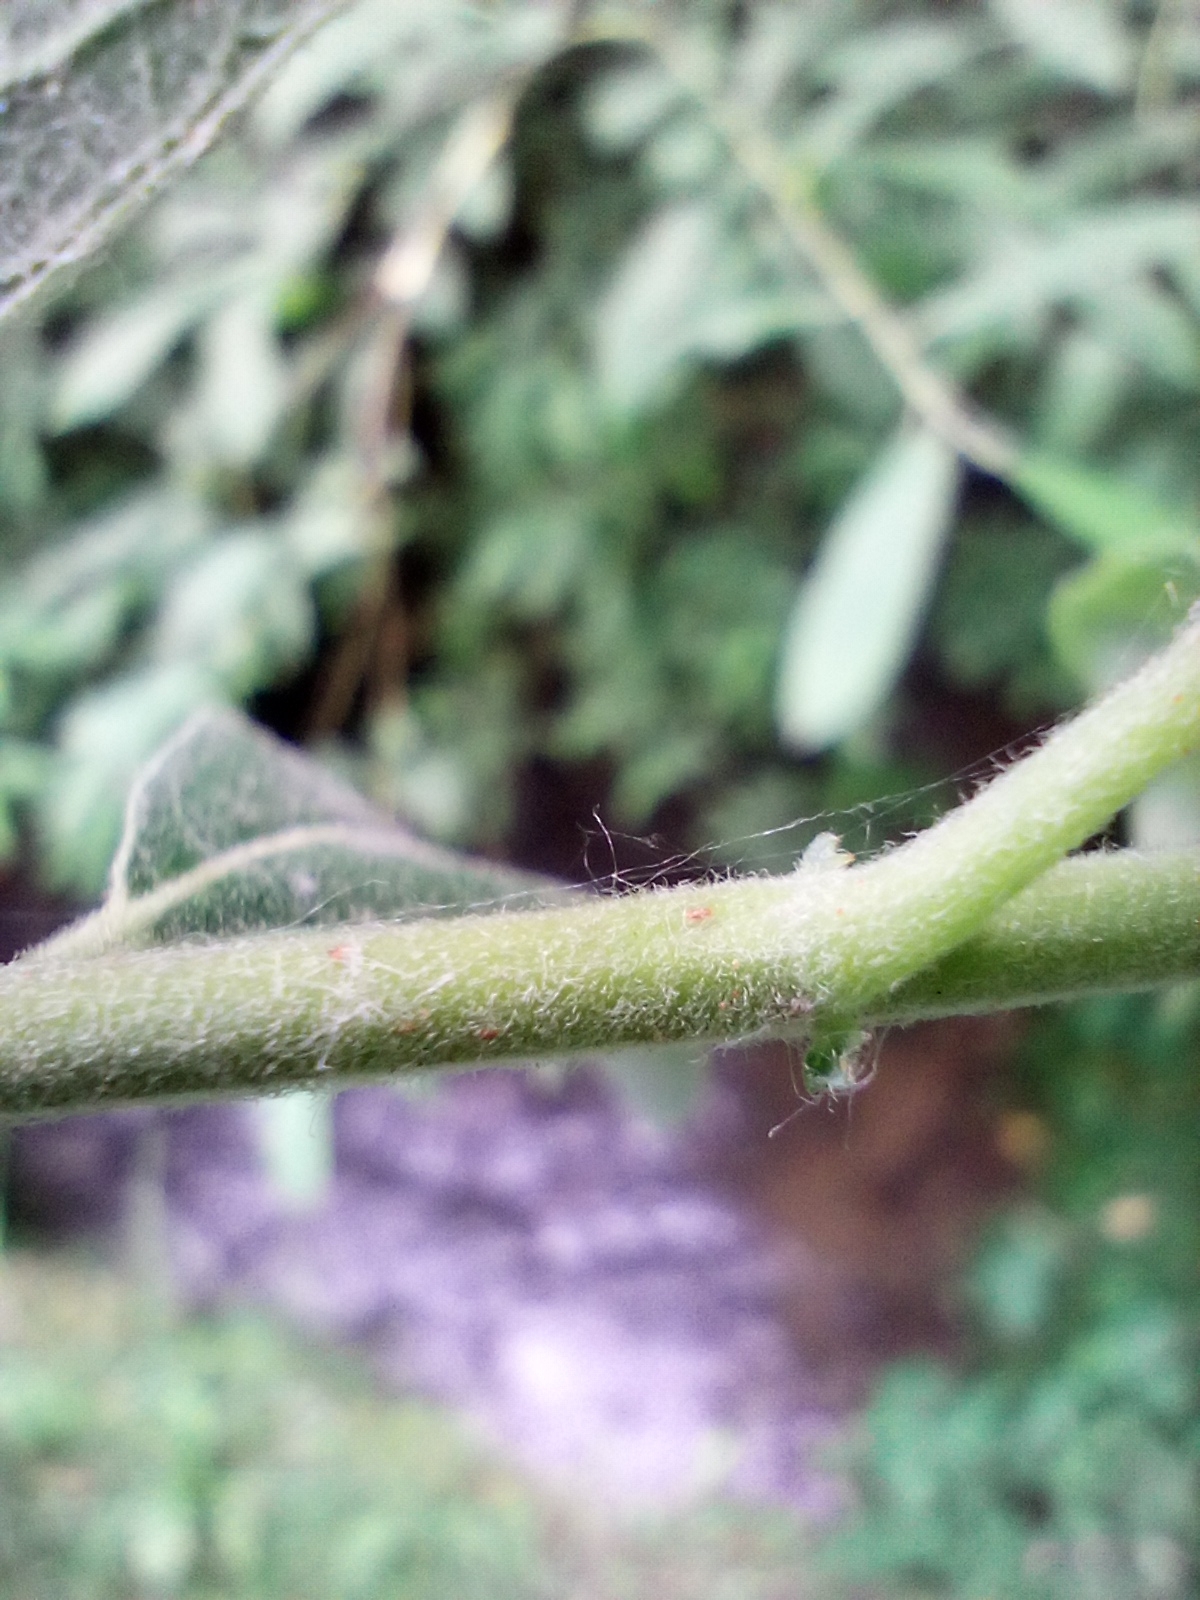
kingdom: Plantae
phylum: Tracheophyta
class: Magnoliopsida
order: Malpighiales
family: Salicaceae
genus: Salix
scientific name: Salix cinerea
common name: Common sallow
